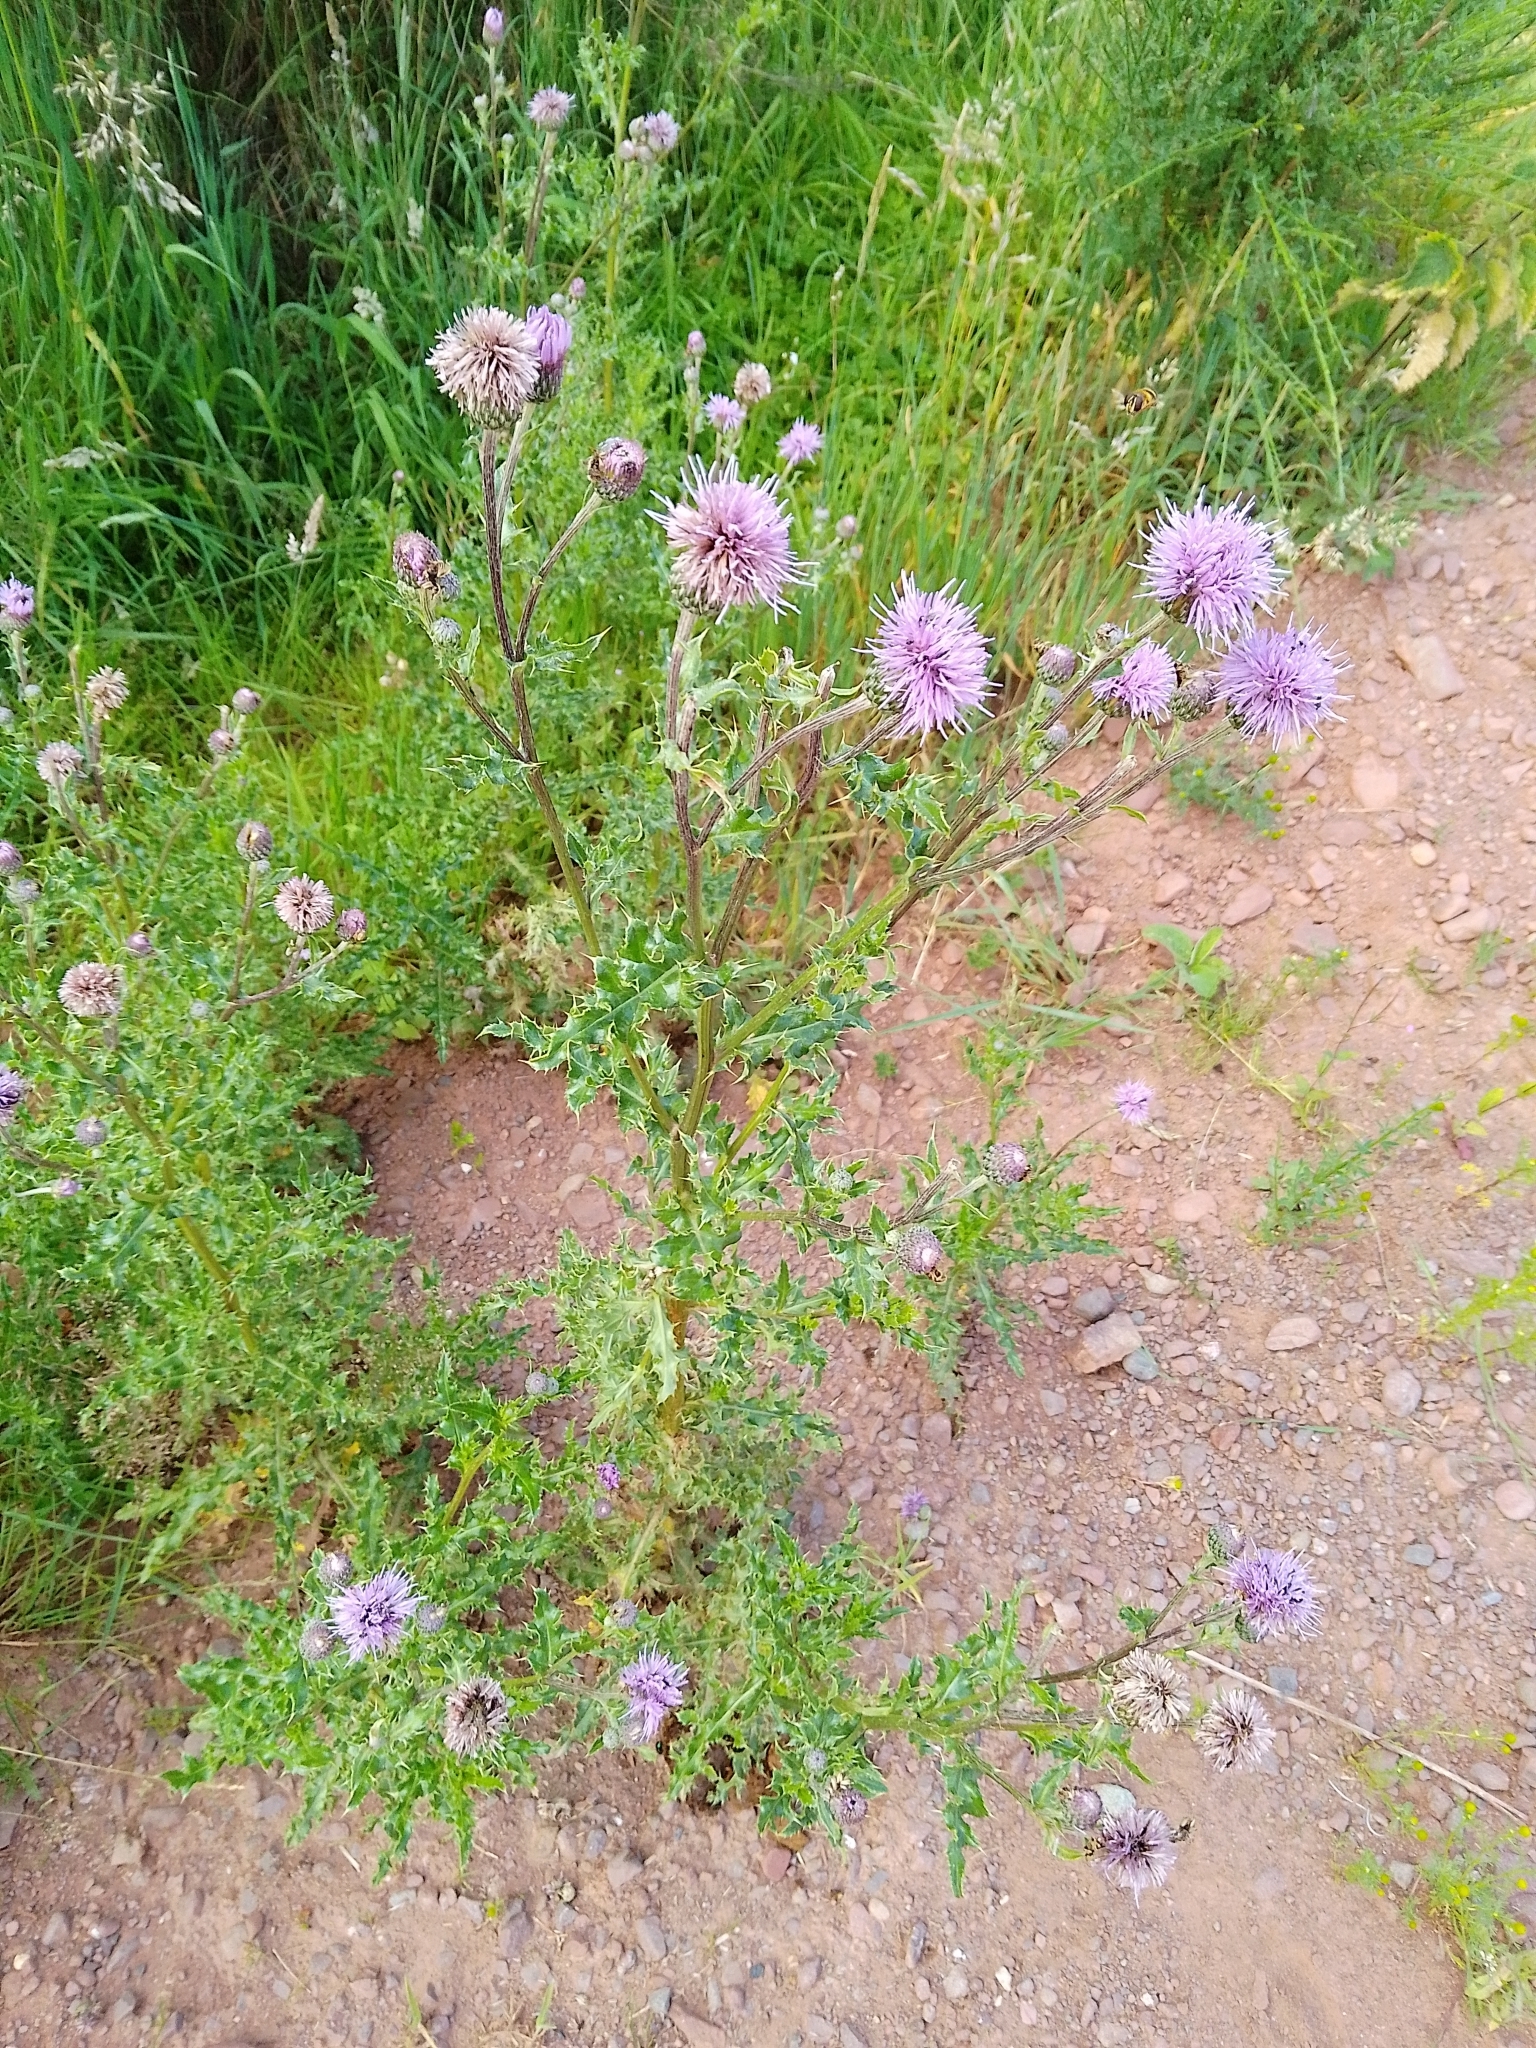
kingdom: Plantae
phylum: Tracheophyta
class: Magnoliopsida
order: Asterales
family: Asteraceae
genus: Cirsium
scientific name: Cirsium arvense
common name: Creeping thistle
